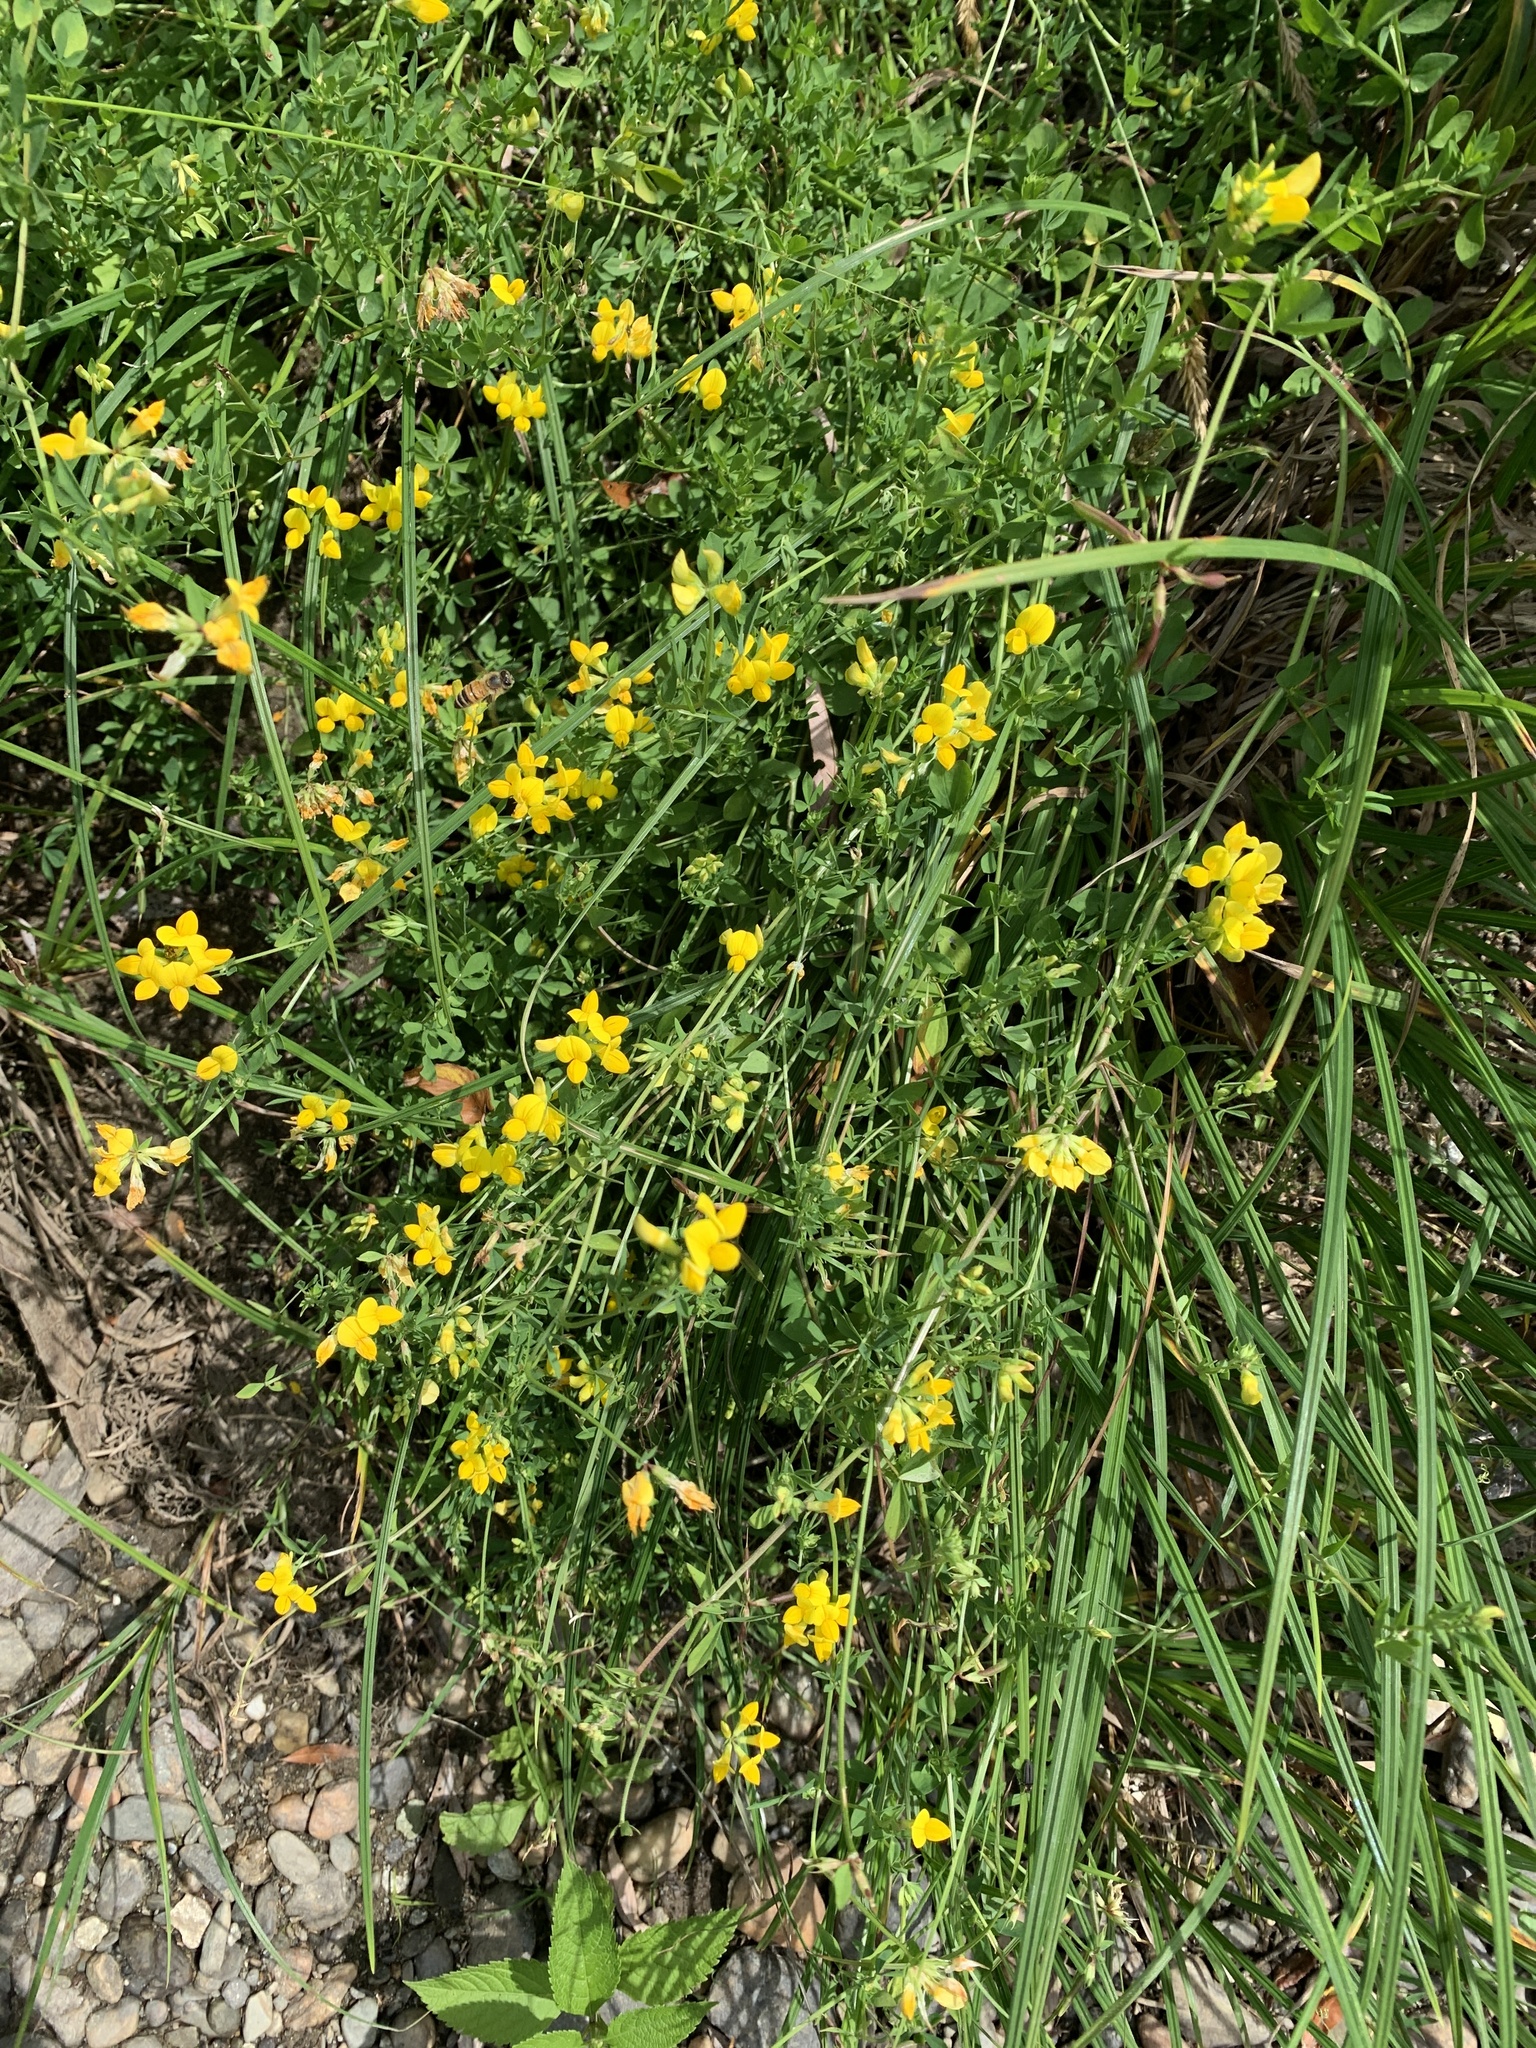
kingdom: Plantae
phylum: Tracheophyta
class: Magnoliopsida
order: Fabales
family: Fabaceae
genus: Lotus
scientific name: Lotus corniculatus
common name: Common bird's-foot-trefoil
